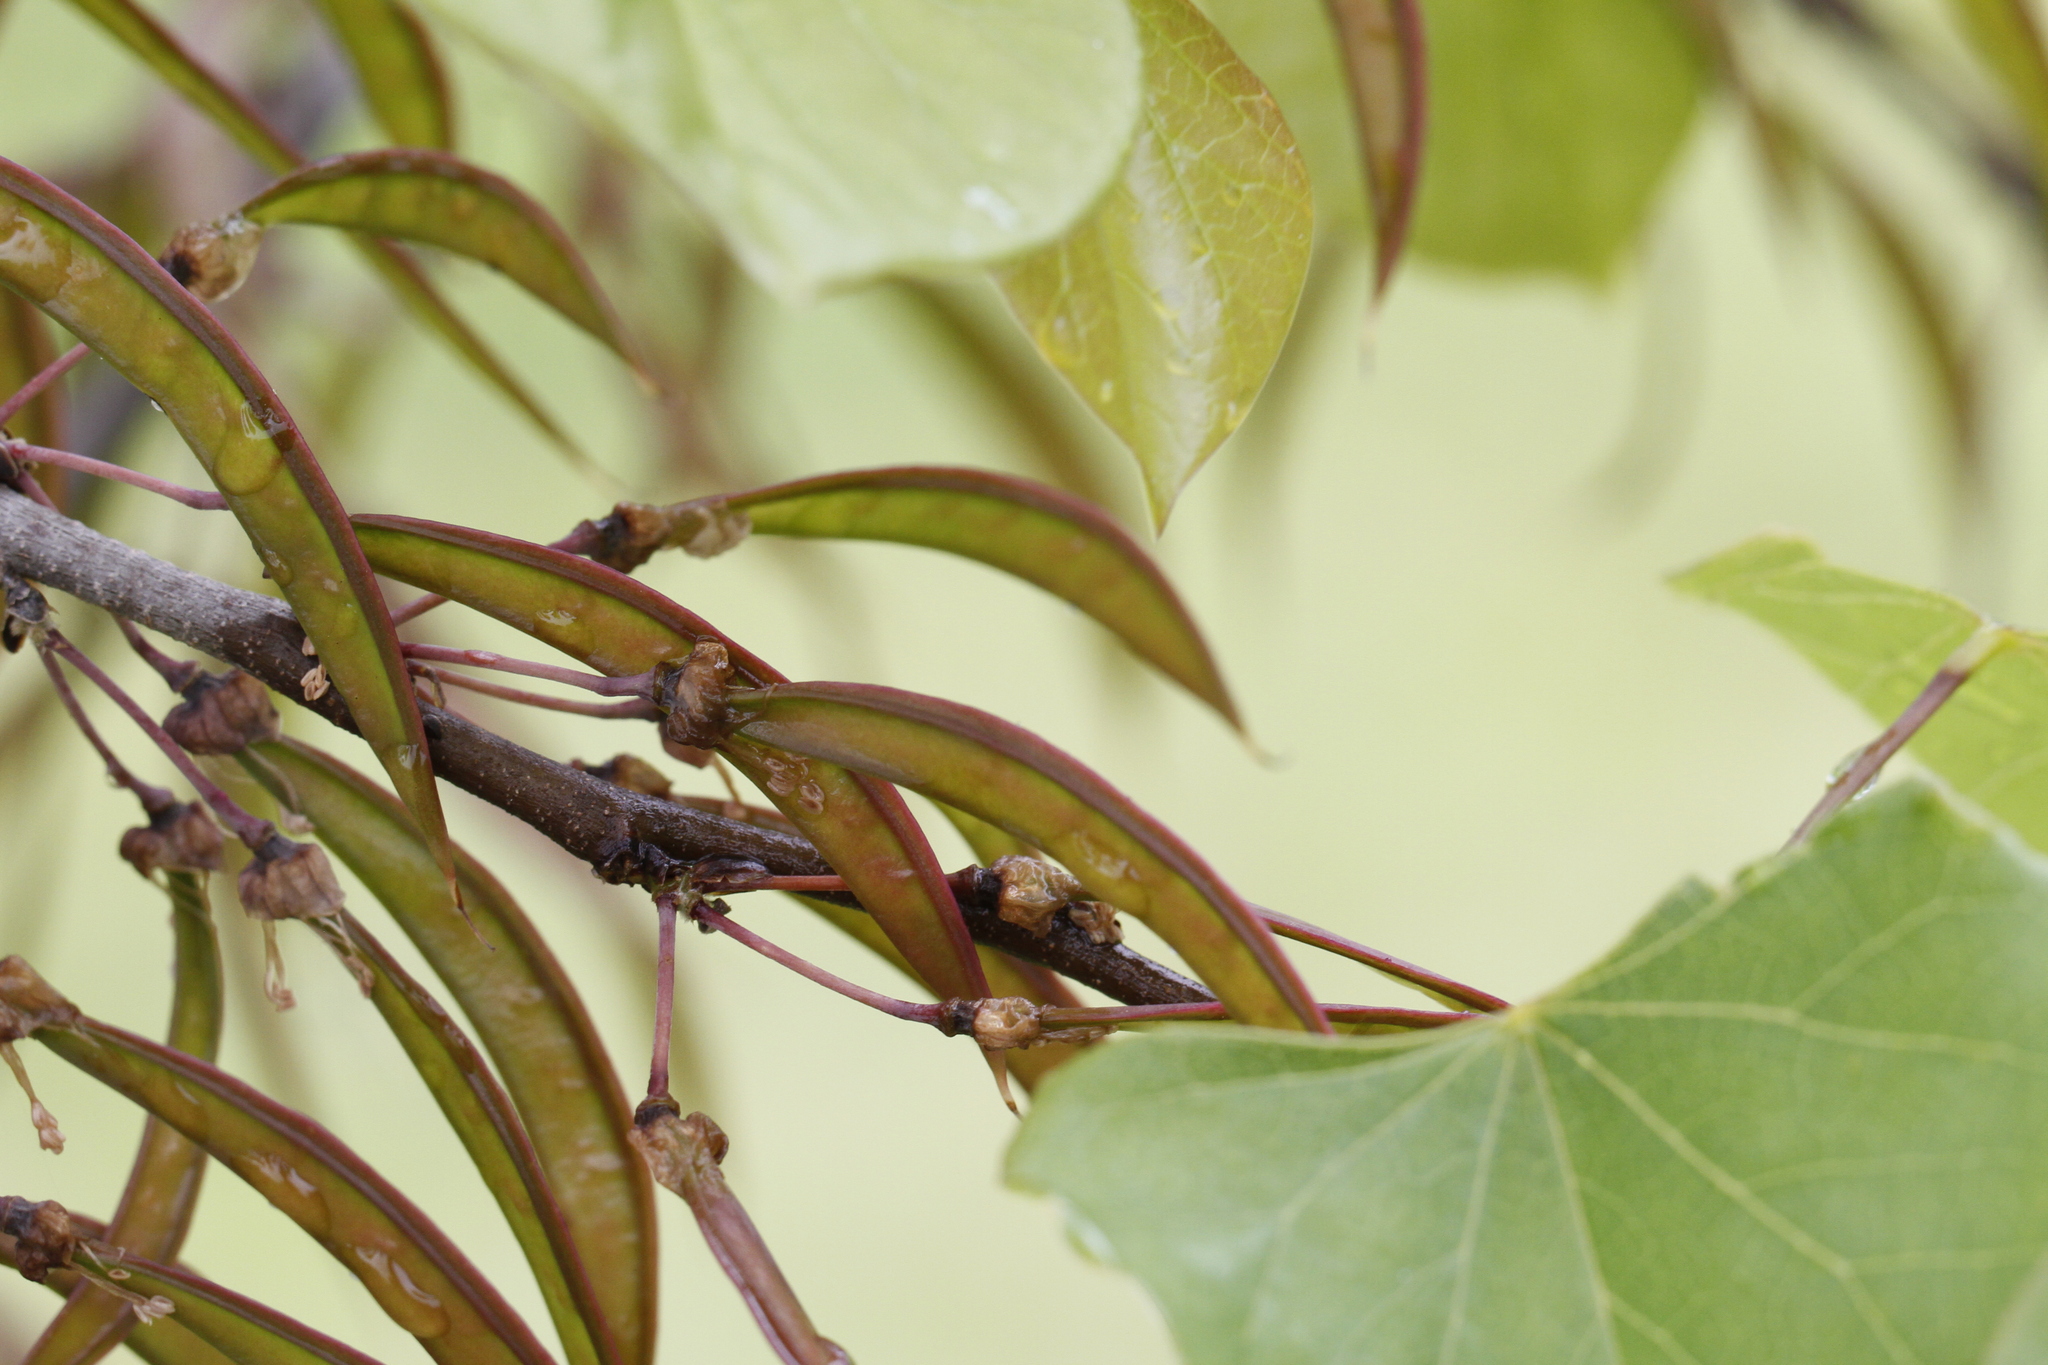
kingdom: Plantae
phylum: Tracheophyta
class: Magnoliopsida
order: Fabales
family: Fabaceae
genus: Cercis
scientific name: Cercis canadensis
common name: Eastern redbud
